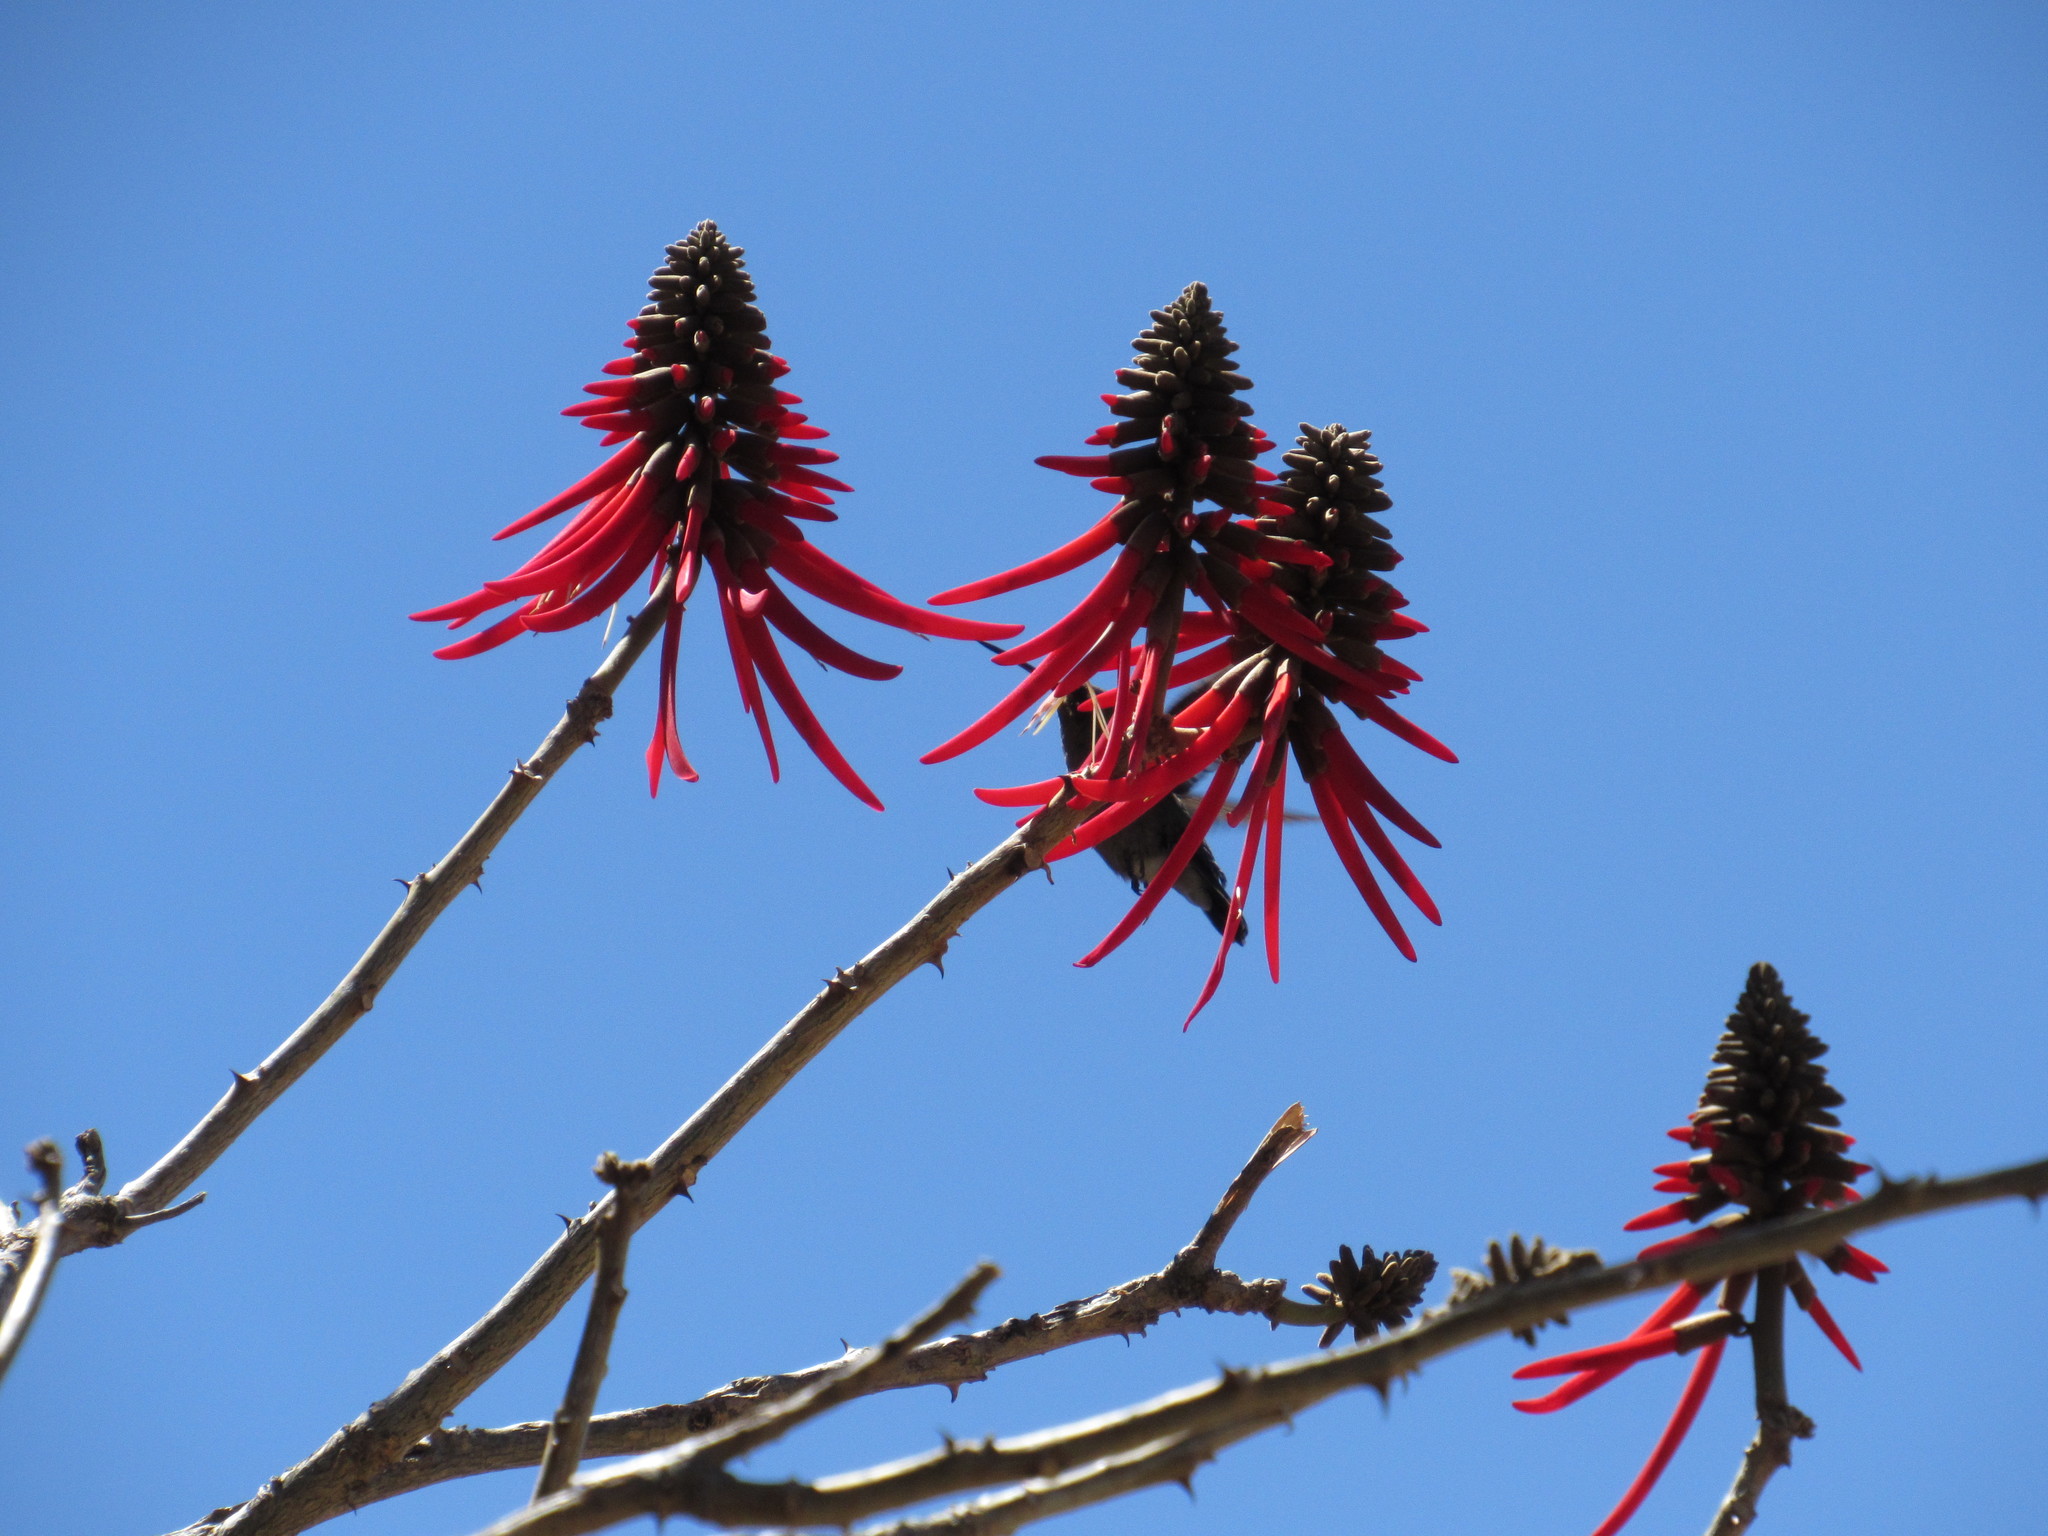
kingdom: Plantae
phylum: Tracheophyta
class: Magnoliopsida
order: Fabales
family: Fabaceae
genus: Erythrina
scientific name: Erythrina americana
